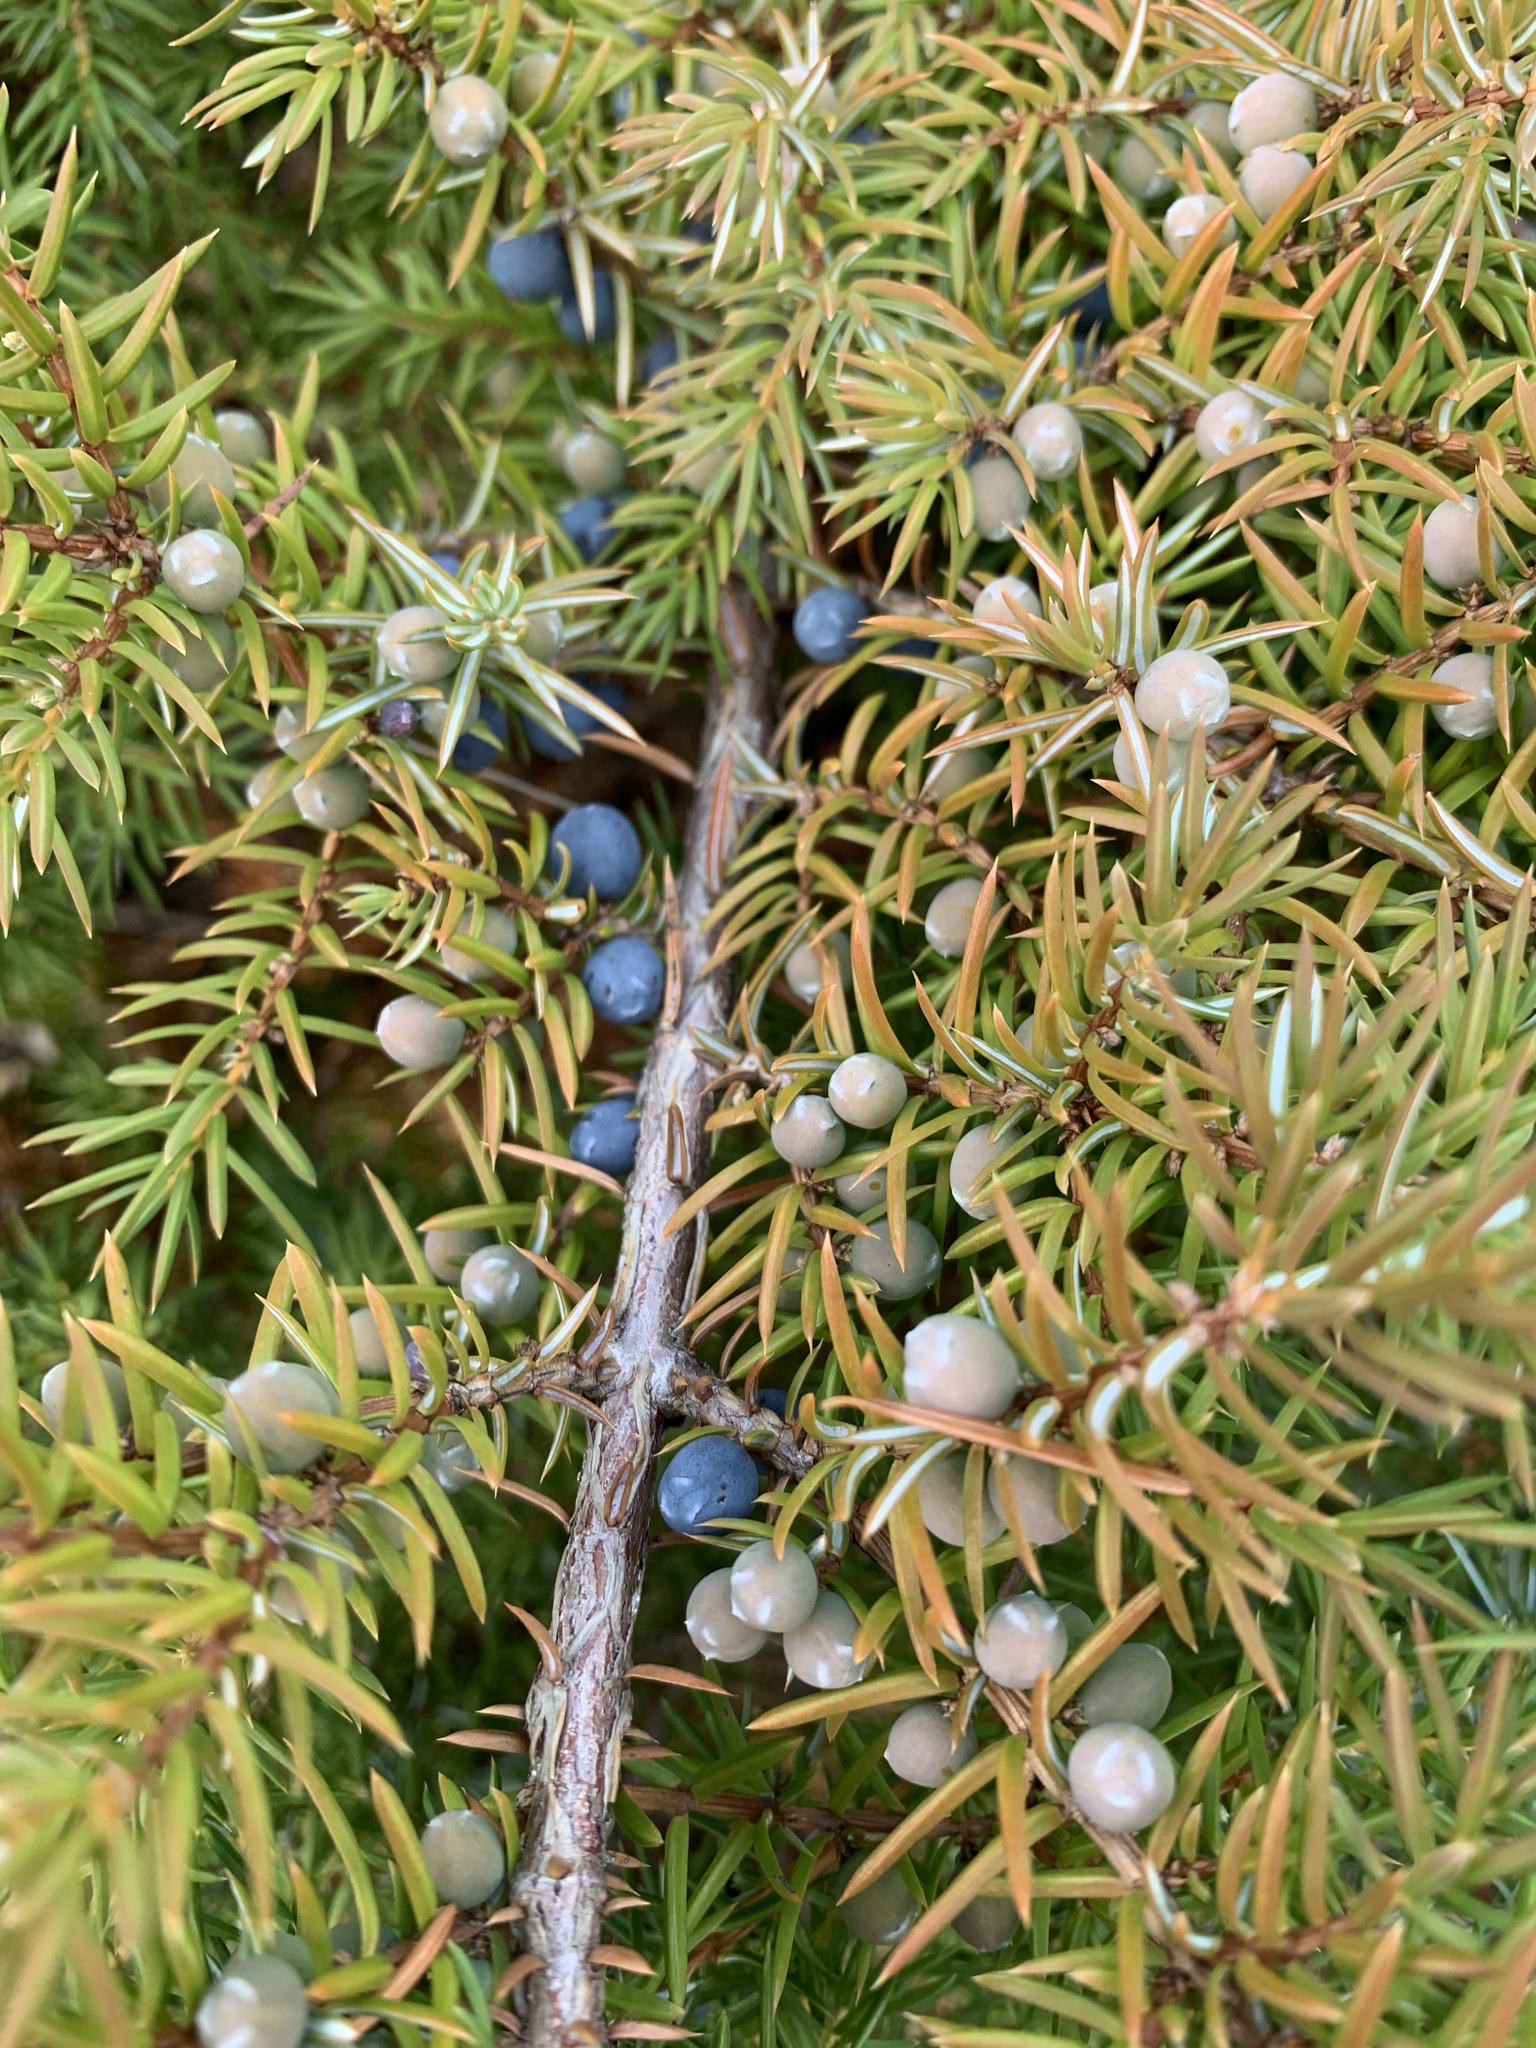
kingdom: Plantae
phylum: Tracheophyta
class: Pinopsida
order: Pinales
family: Cupressaceae
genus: Juniperus
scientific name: Juniperus communis
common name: Common juniper
